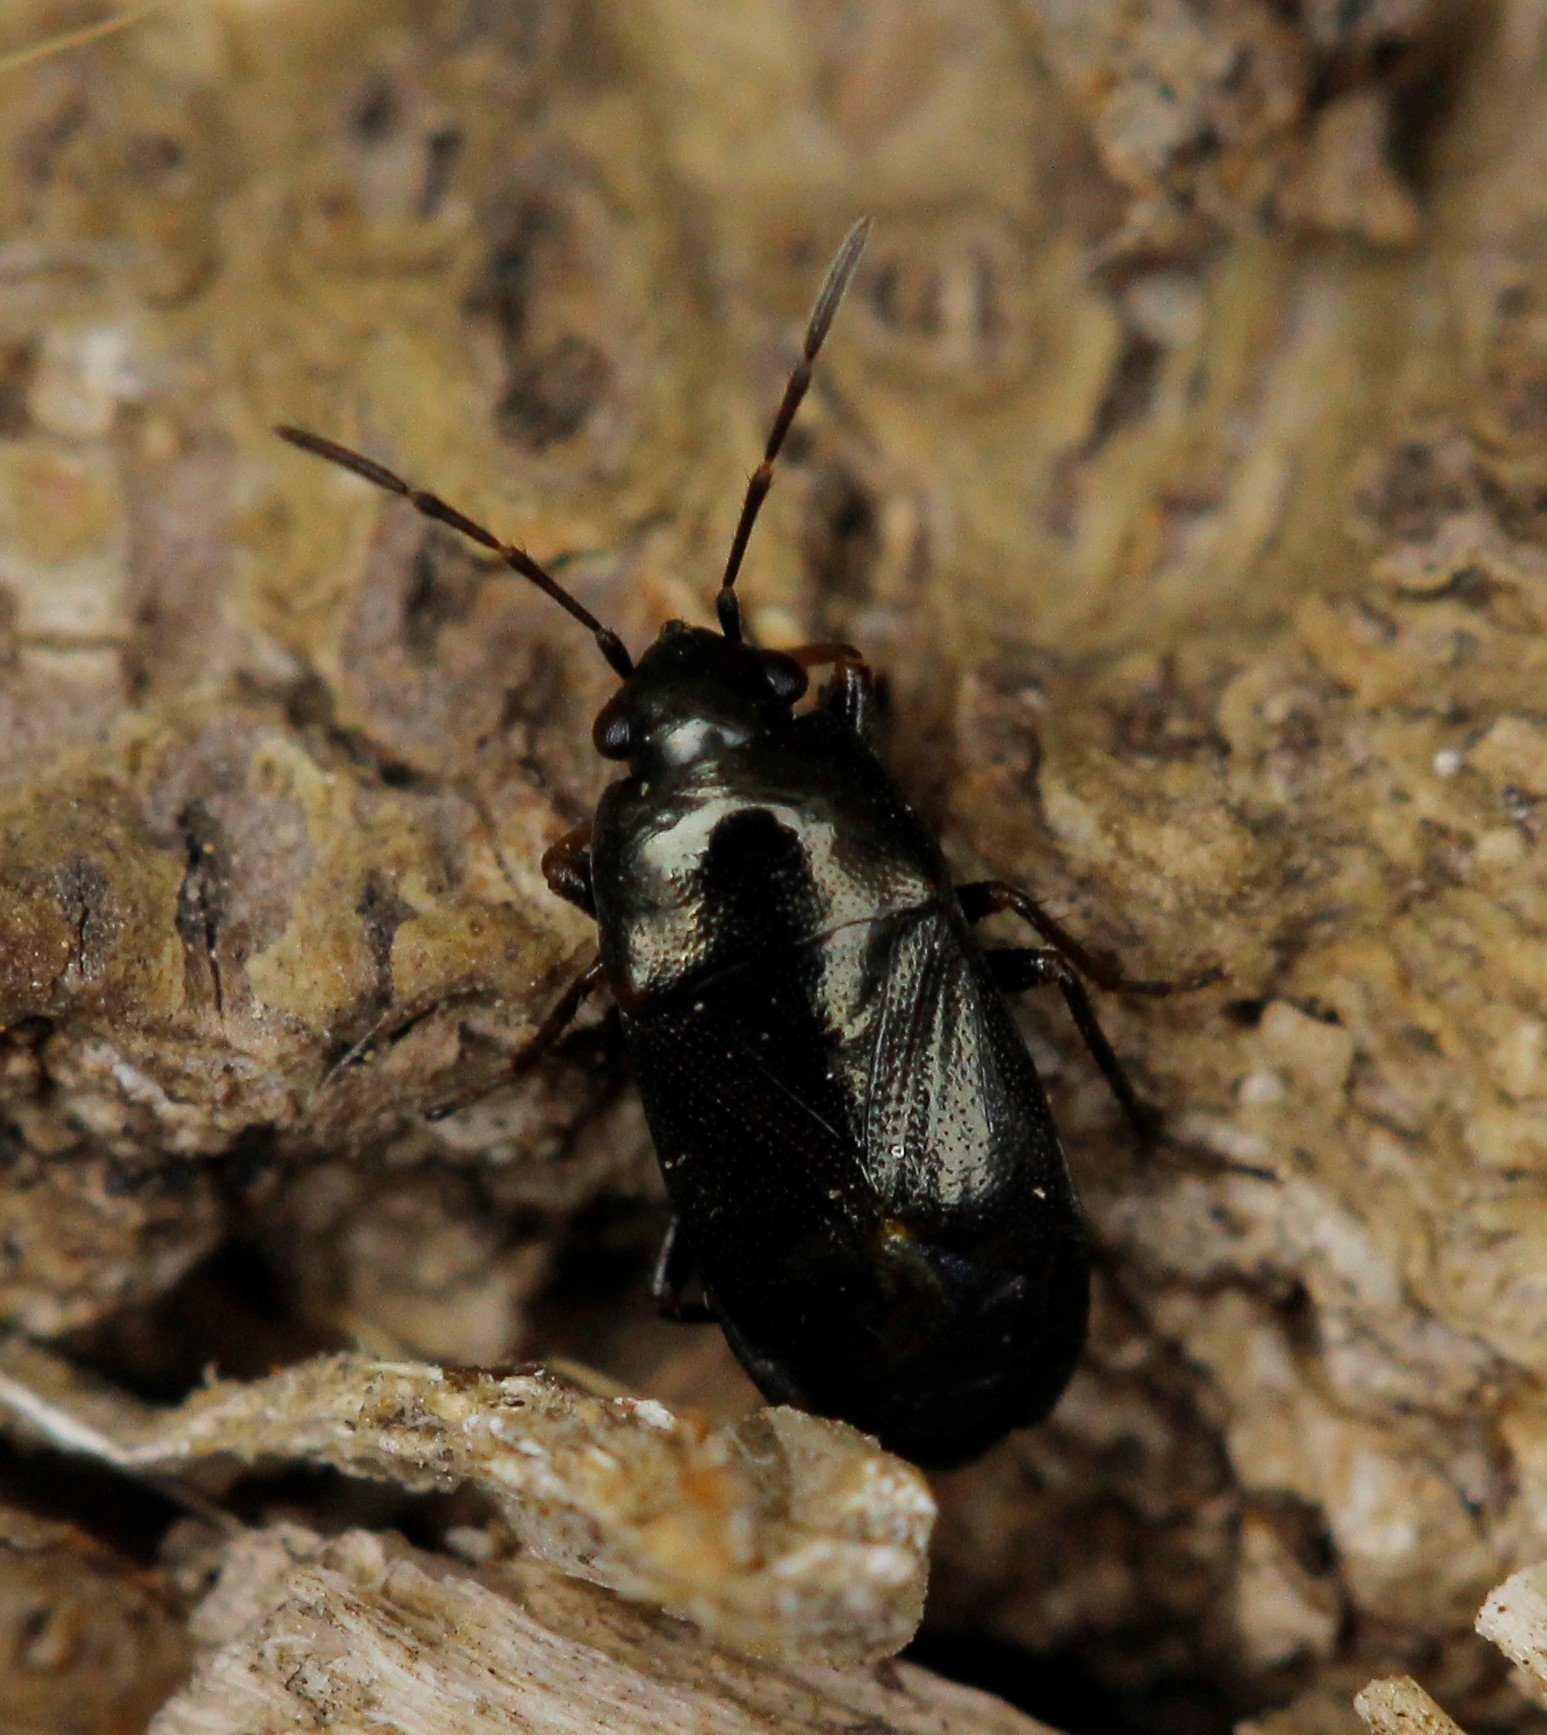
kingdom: Animalia
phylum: Arthropoda
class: Insecta
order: Hemiptera
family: Rhyparochromidae
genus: Lamprodema
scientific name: Lamprodema maura
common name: Seed bug
